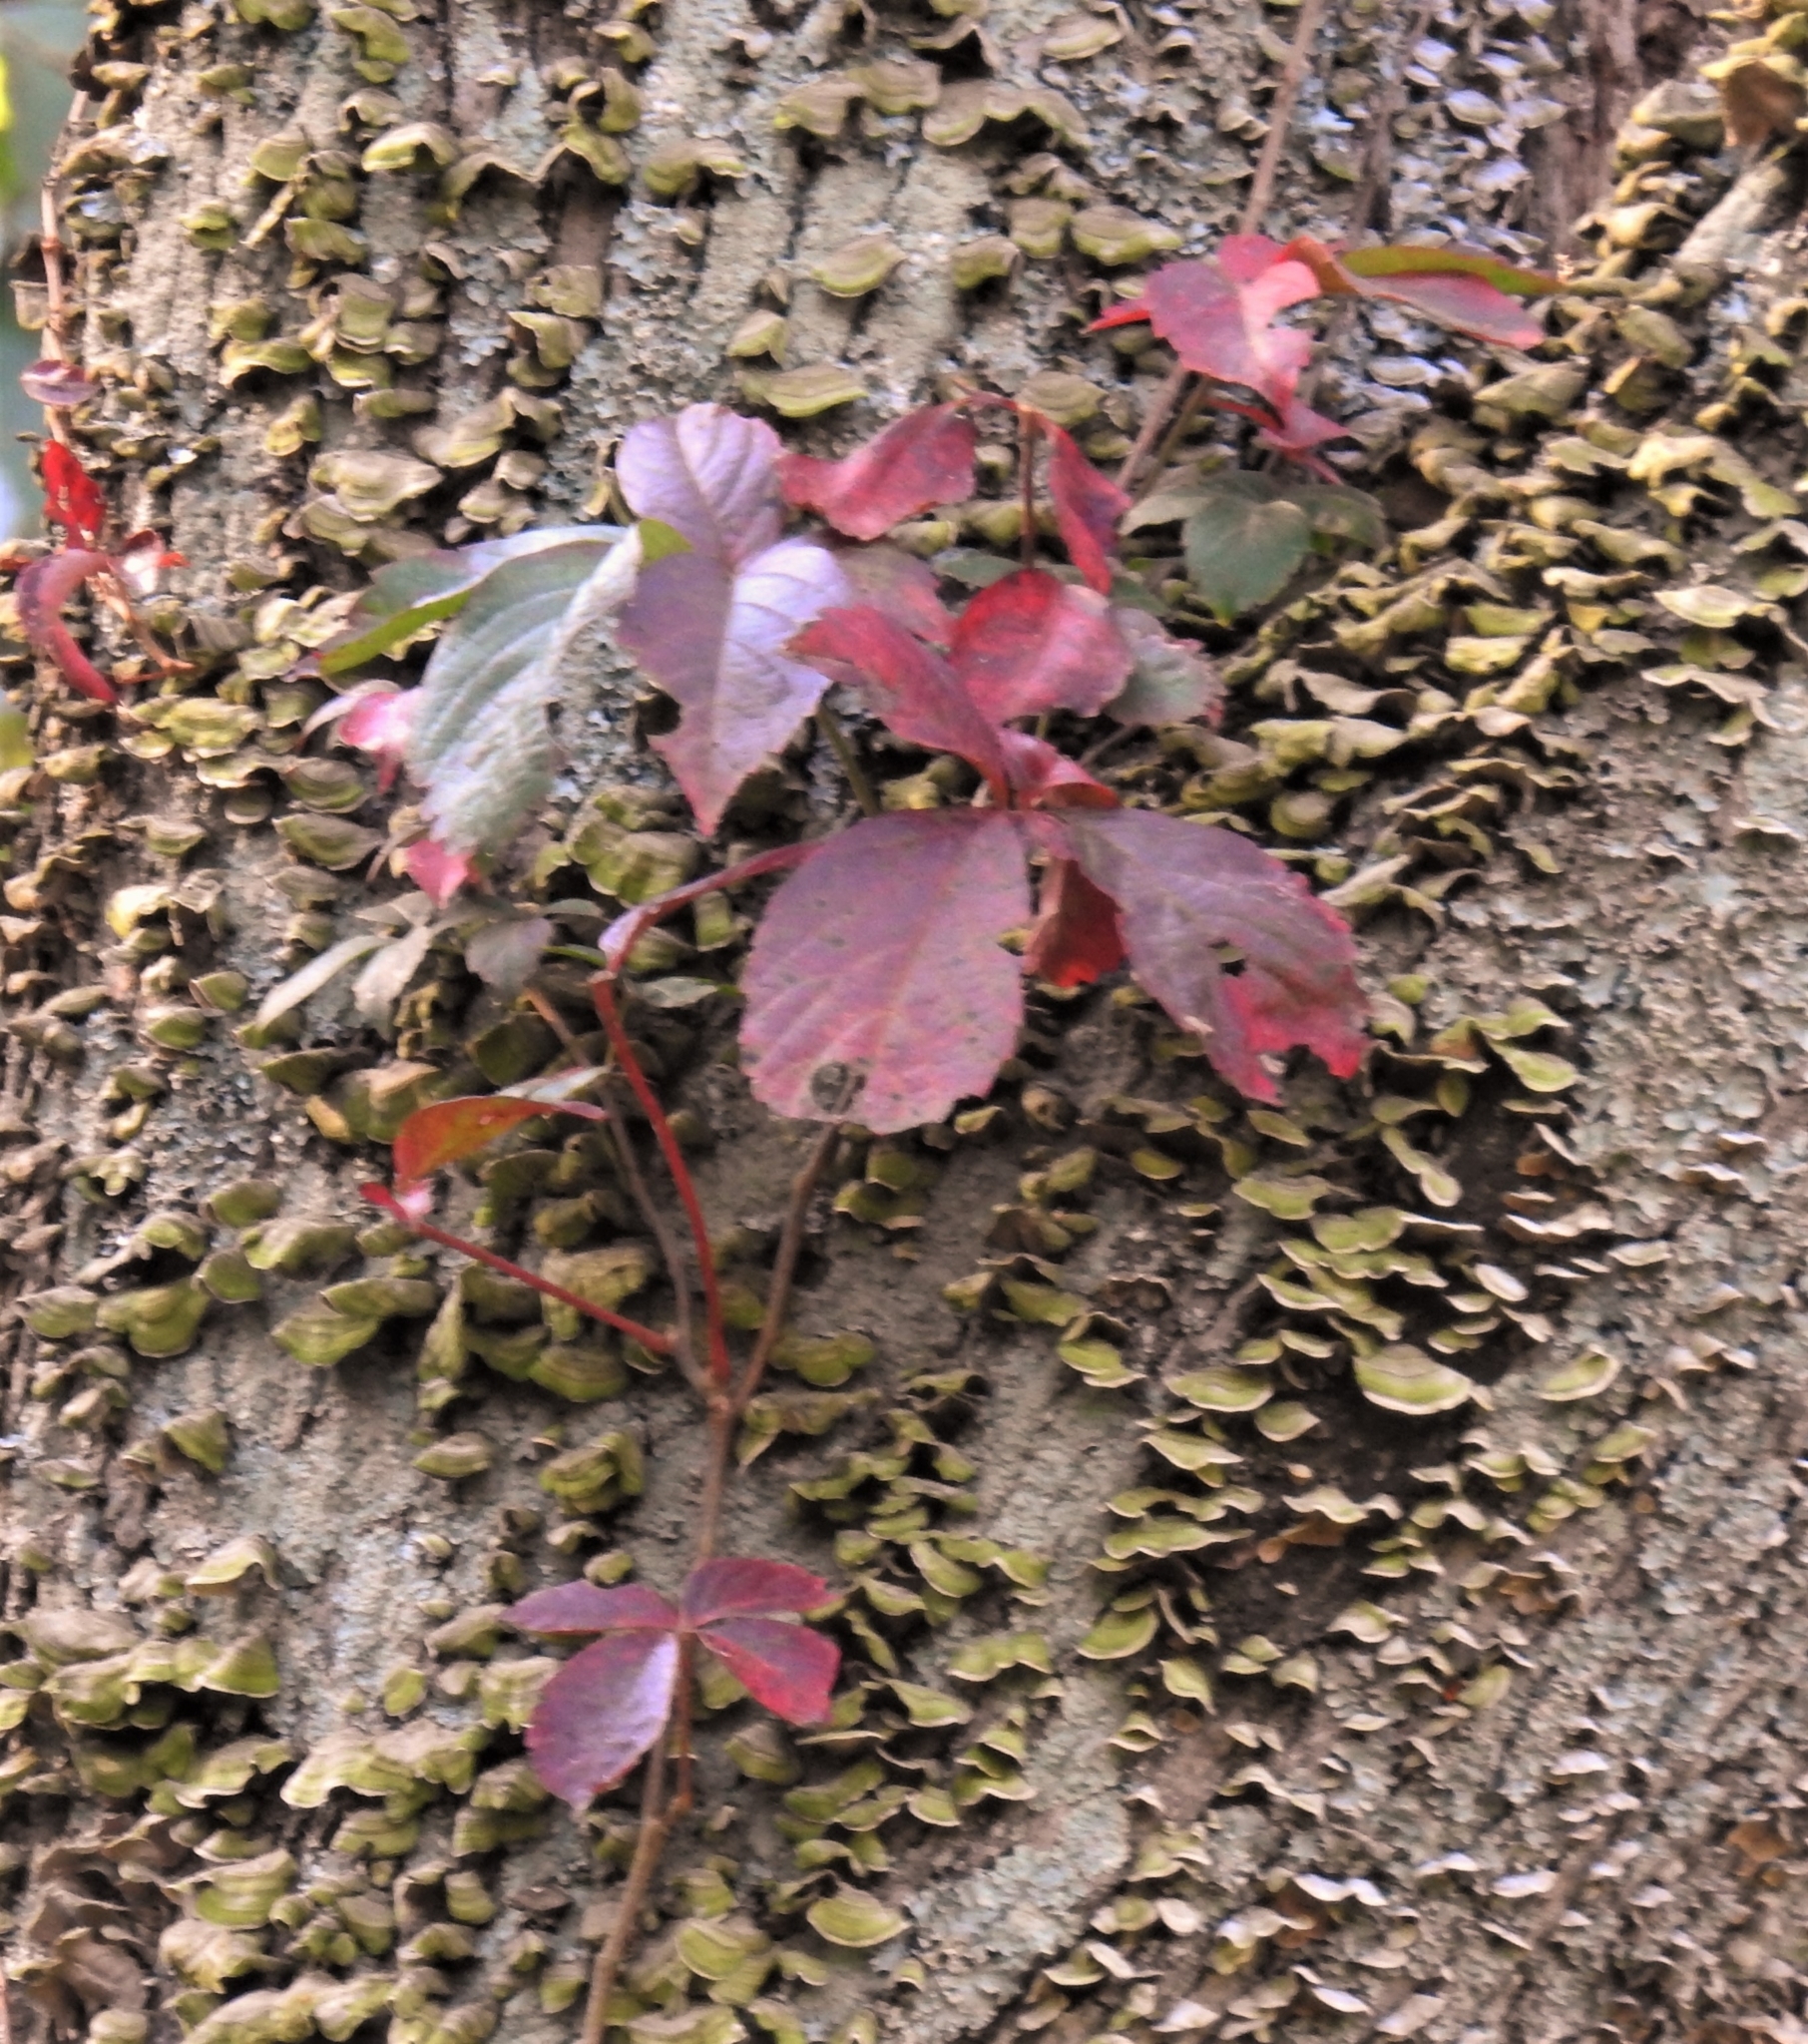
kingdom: Plantae
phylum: Tracheophyta
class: Magnoliopsida
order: Vitales
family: Vitaceae
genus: Parthenocissus
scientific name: Parthenocissus quinquefolia
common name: Virginia-creeper
